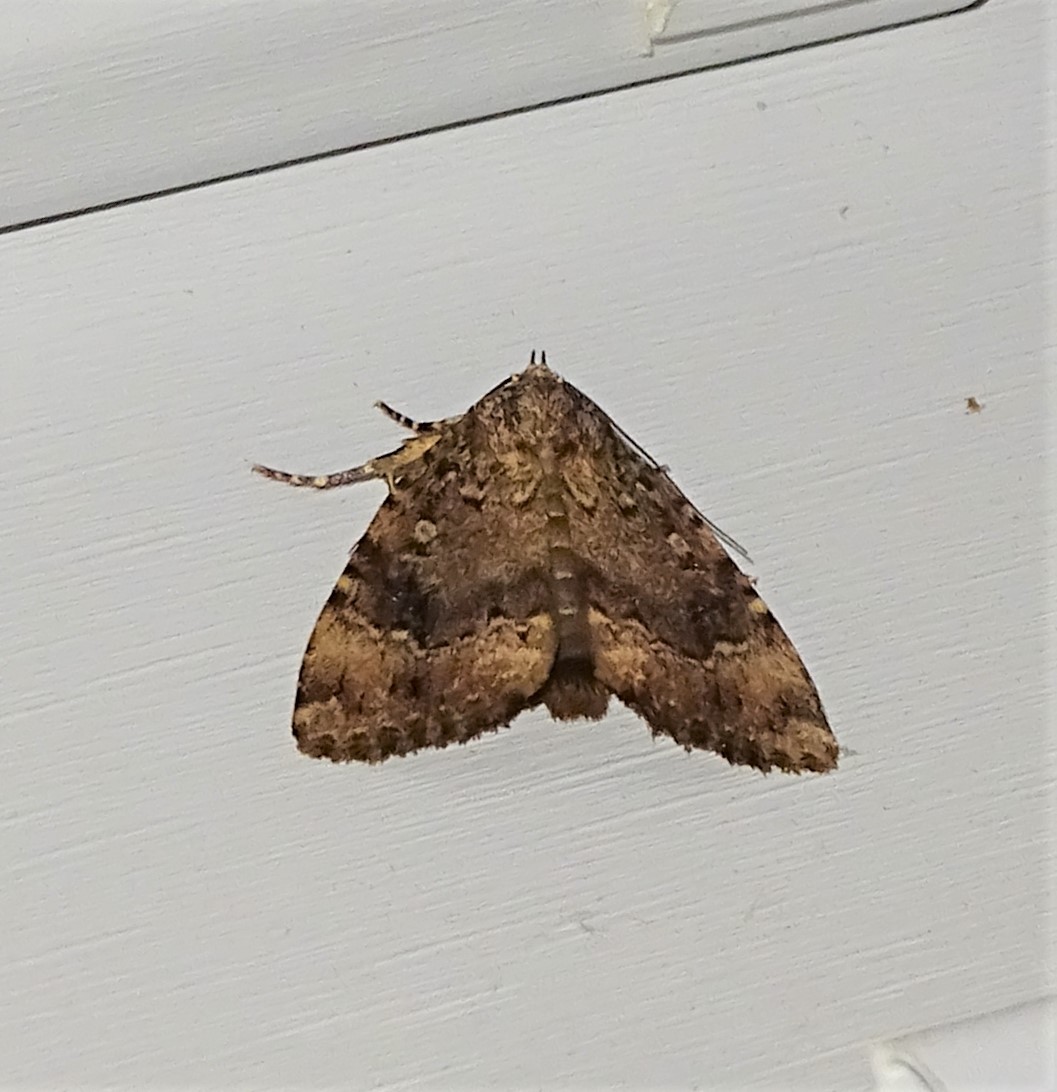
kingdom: Animalia
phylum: Arthropoda
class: Insecta
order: Lepidoptera
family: Noctuidae
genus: Amphipyra
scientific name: Amphipyra pyramidoides
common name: American copper underwing
